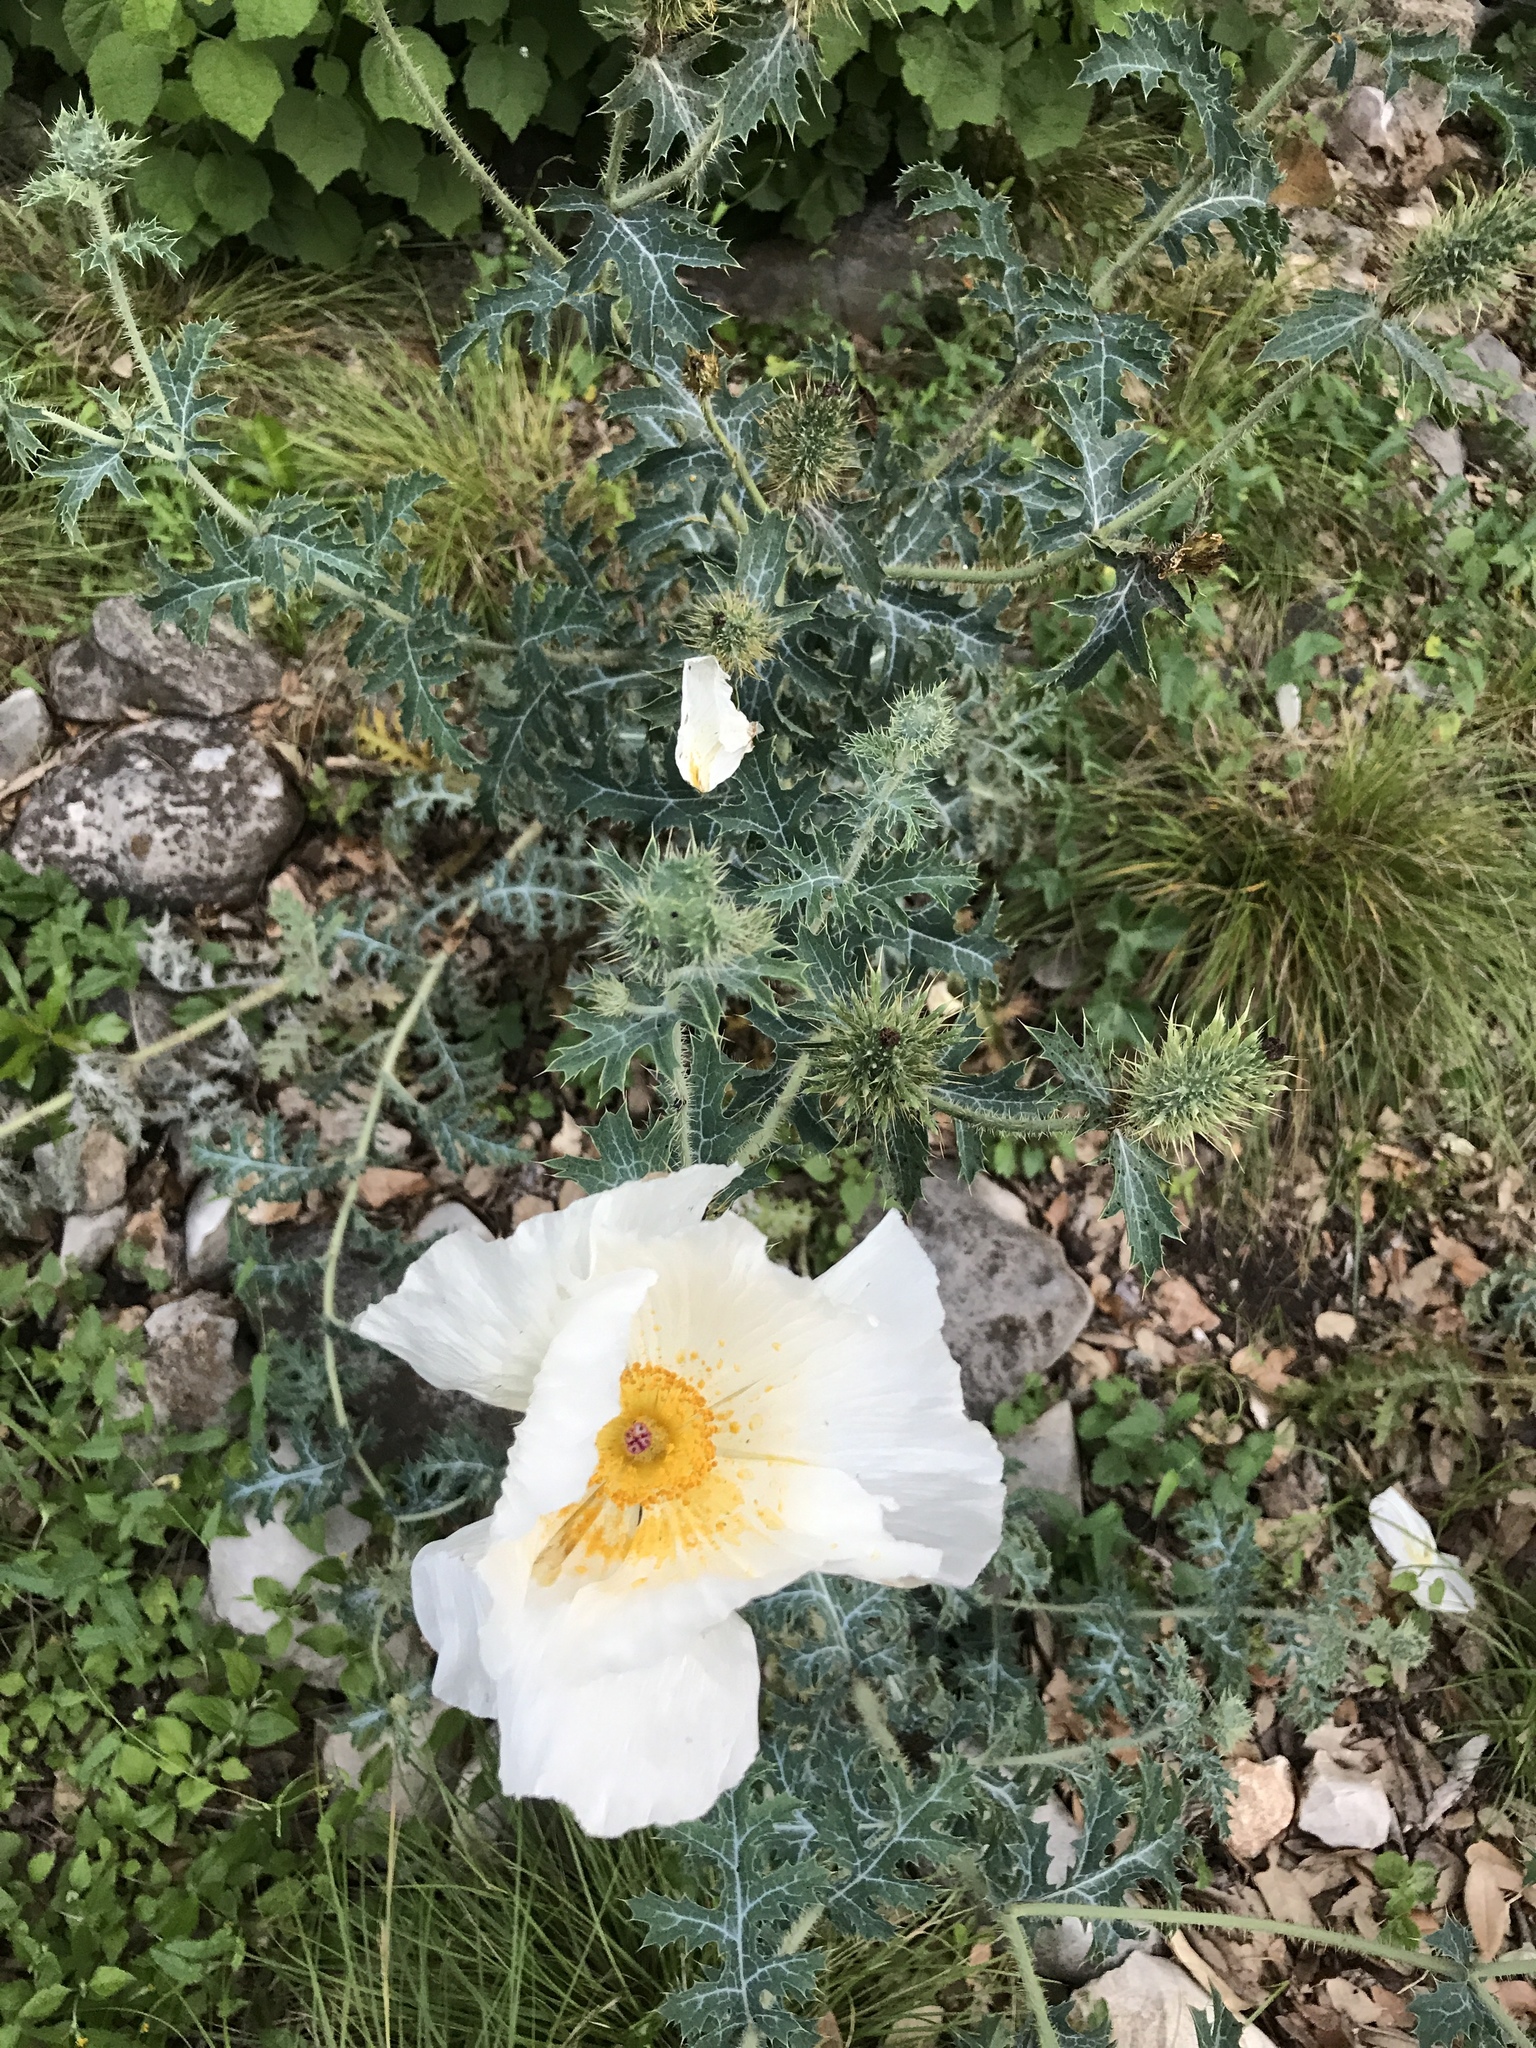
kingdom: Plantae
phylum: Tracheophyta
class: Magnoliopsida
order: Ranunculales
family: Papaveraceae
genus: Argemone
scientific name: Argemone albiflora
